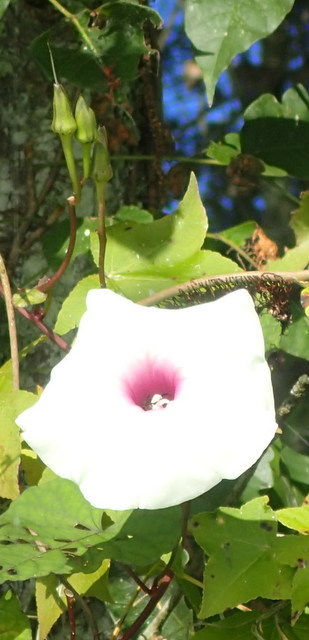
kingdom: Plantae
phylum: Tracheophyta
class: Magnoliopsida
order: Solanales
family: Convolvulaceae
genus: Ipomoea
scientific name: Ipomoea pandurata
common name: Man-of-the-earth
